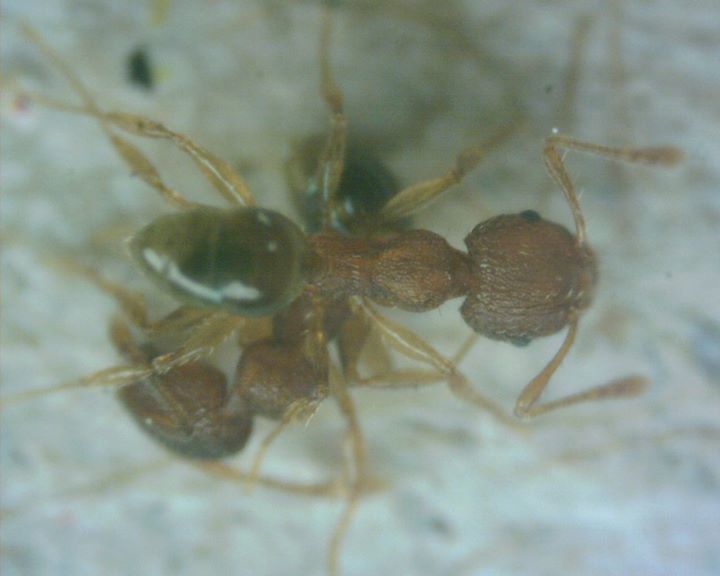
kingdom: Animalia
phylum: Arthropoda
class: Insecta
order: Hymenoptera
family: Formicidae
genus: Pheidole
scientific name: Pheidole parva
